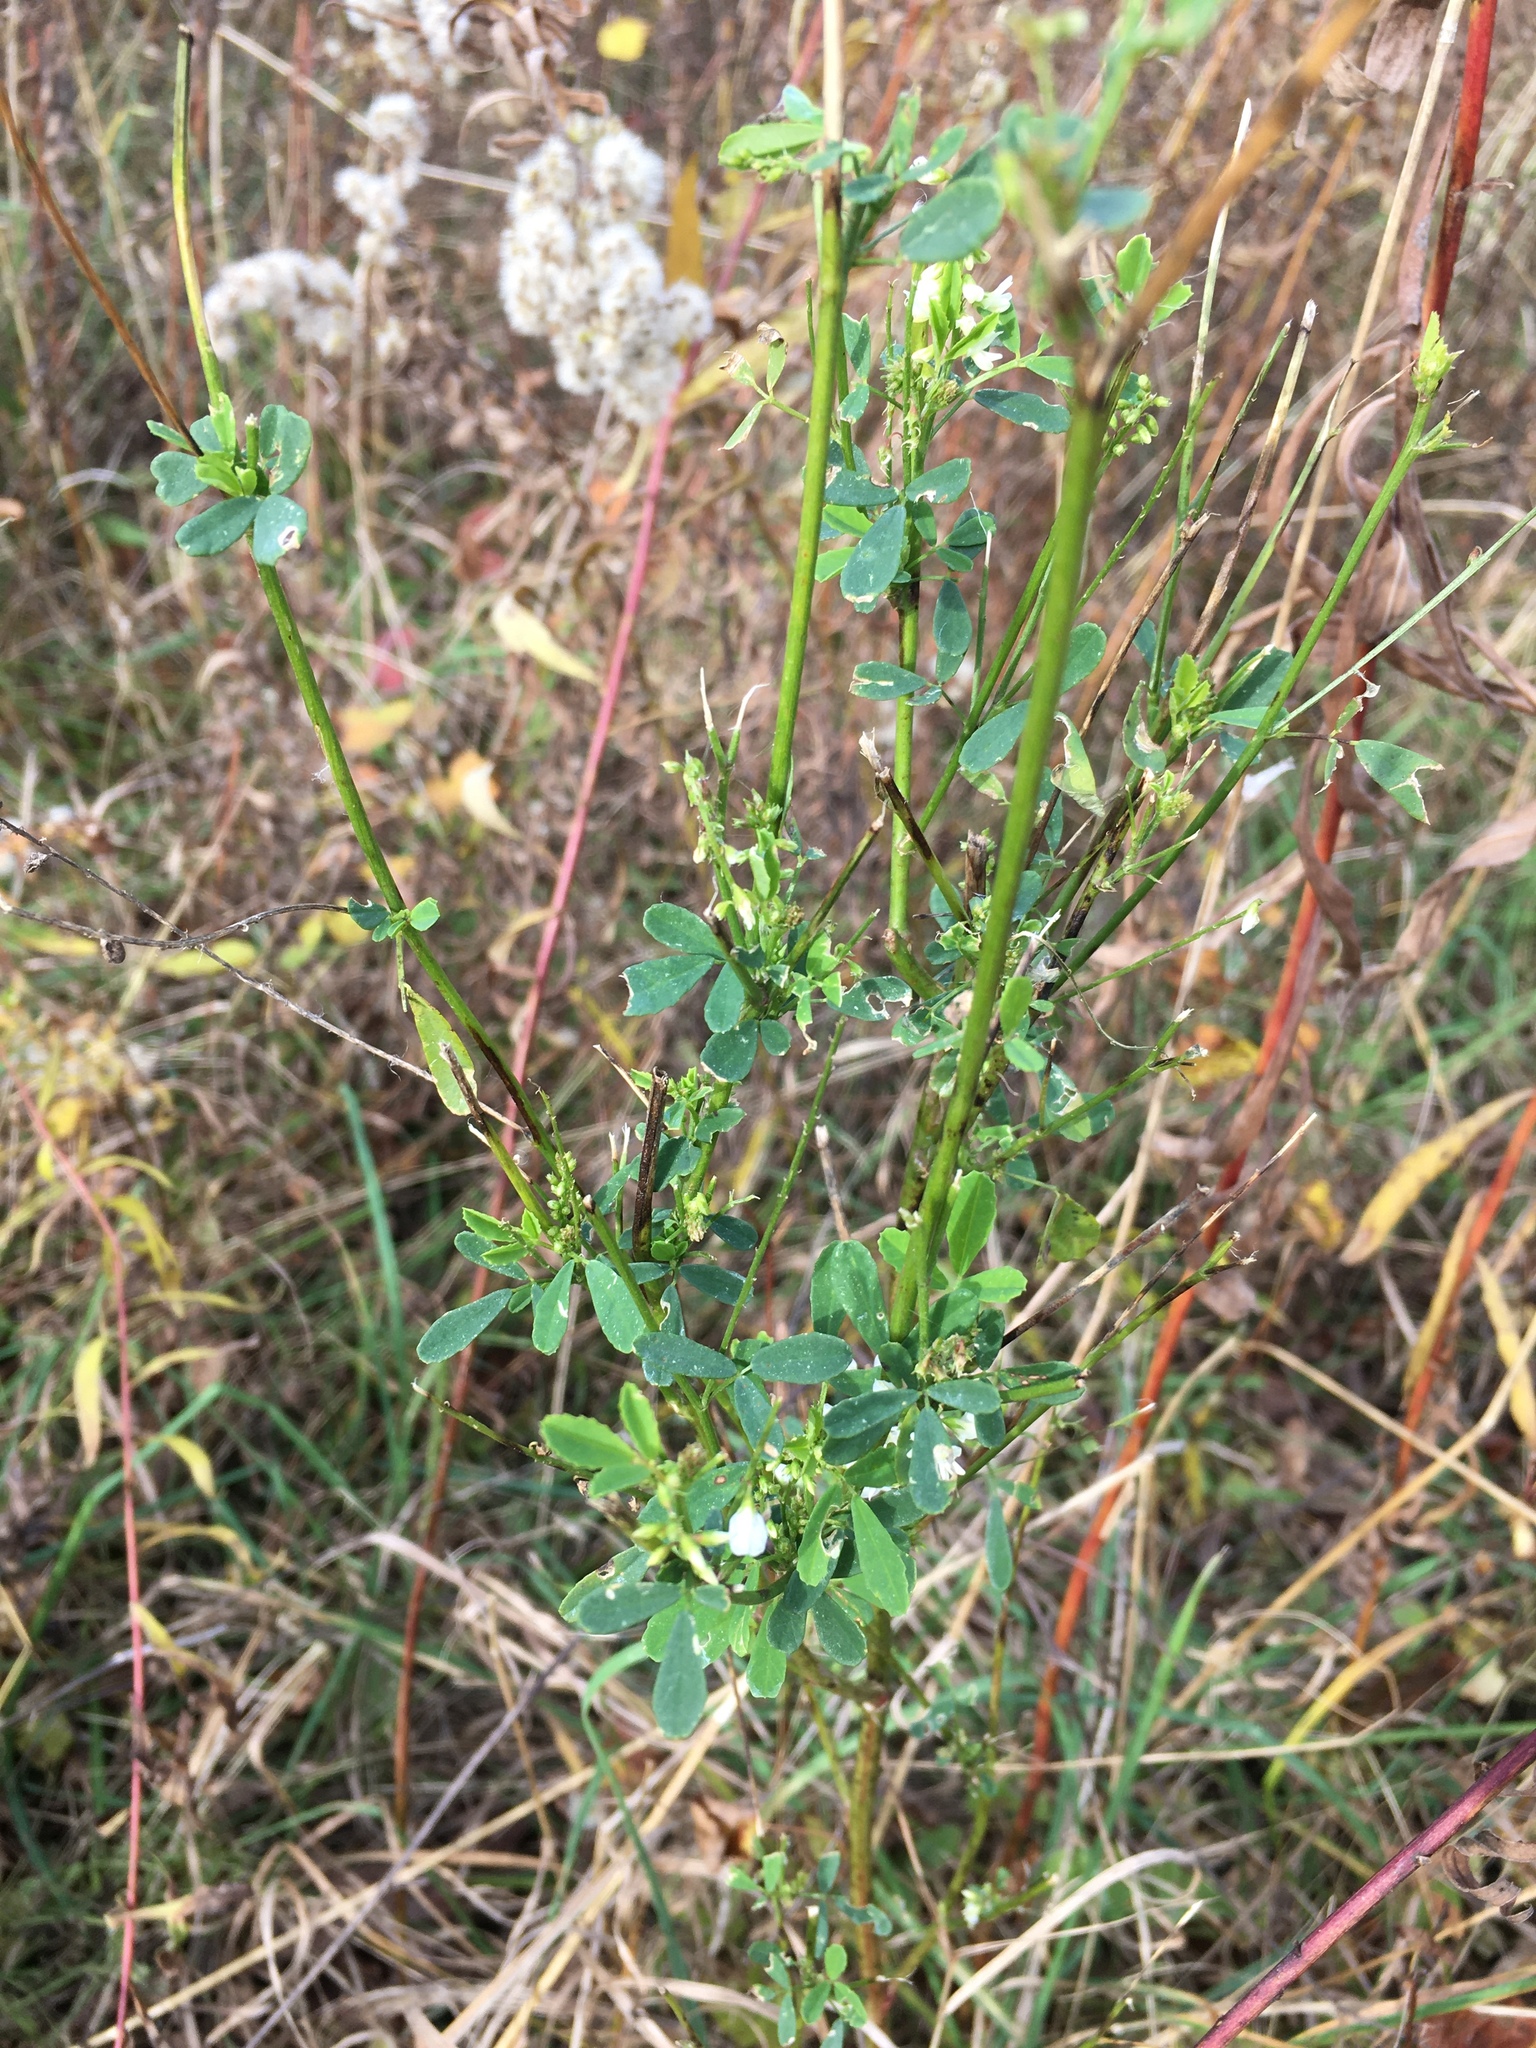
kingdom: Plantae
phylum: Tracheophyta
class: Magnoliopsida
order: Fabales
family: Fabaceae
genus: Melilotus
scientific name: Melilotus albus
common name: White melilot
